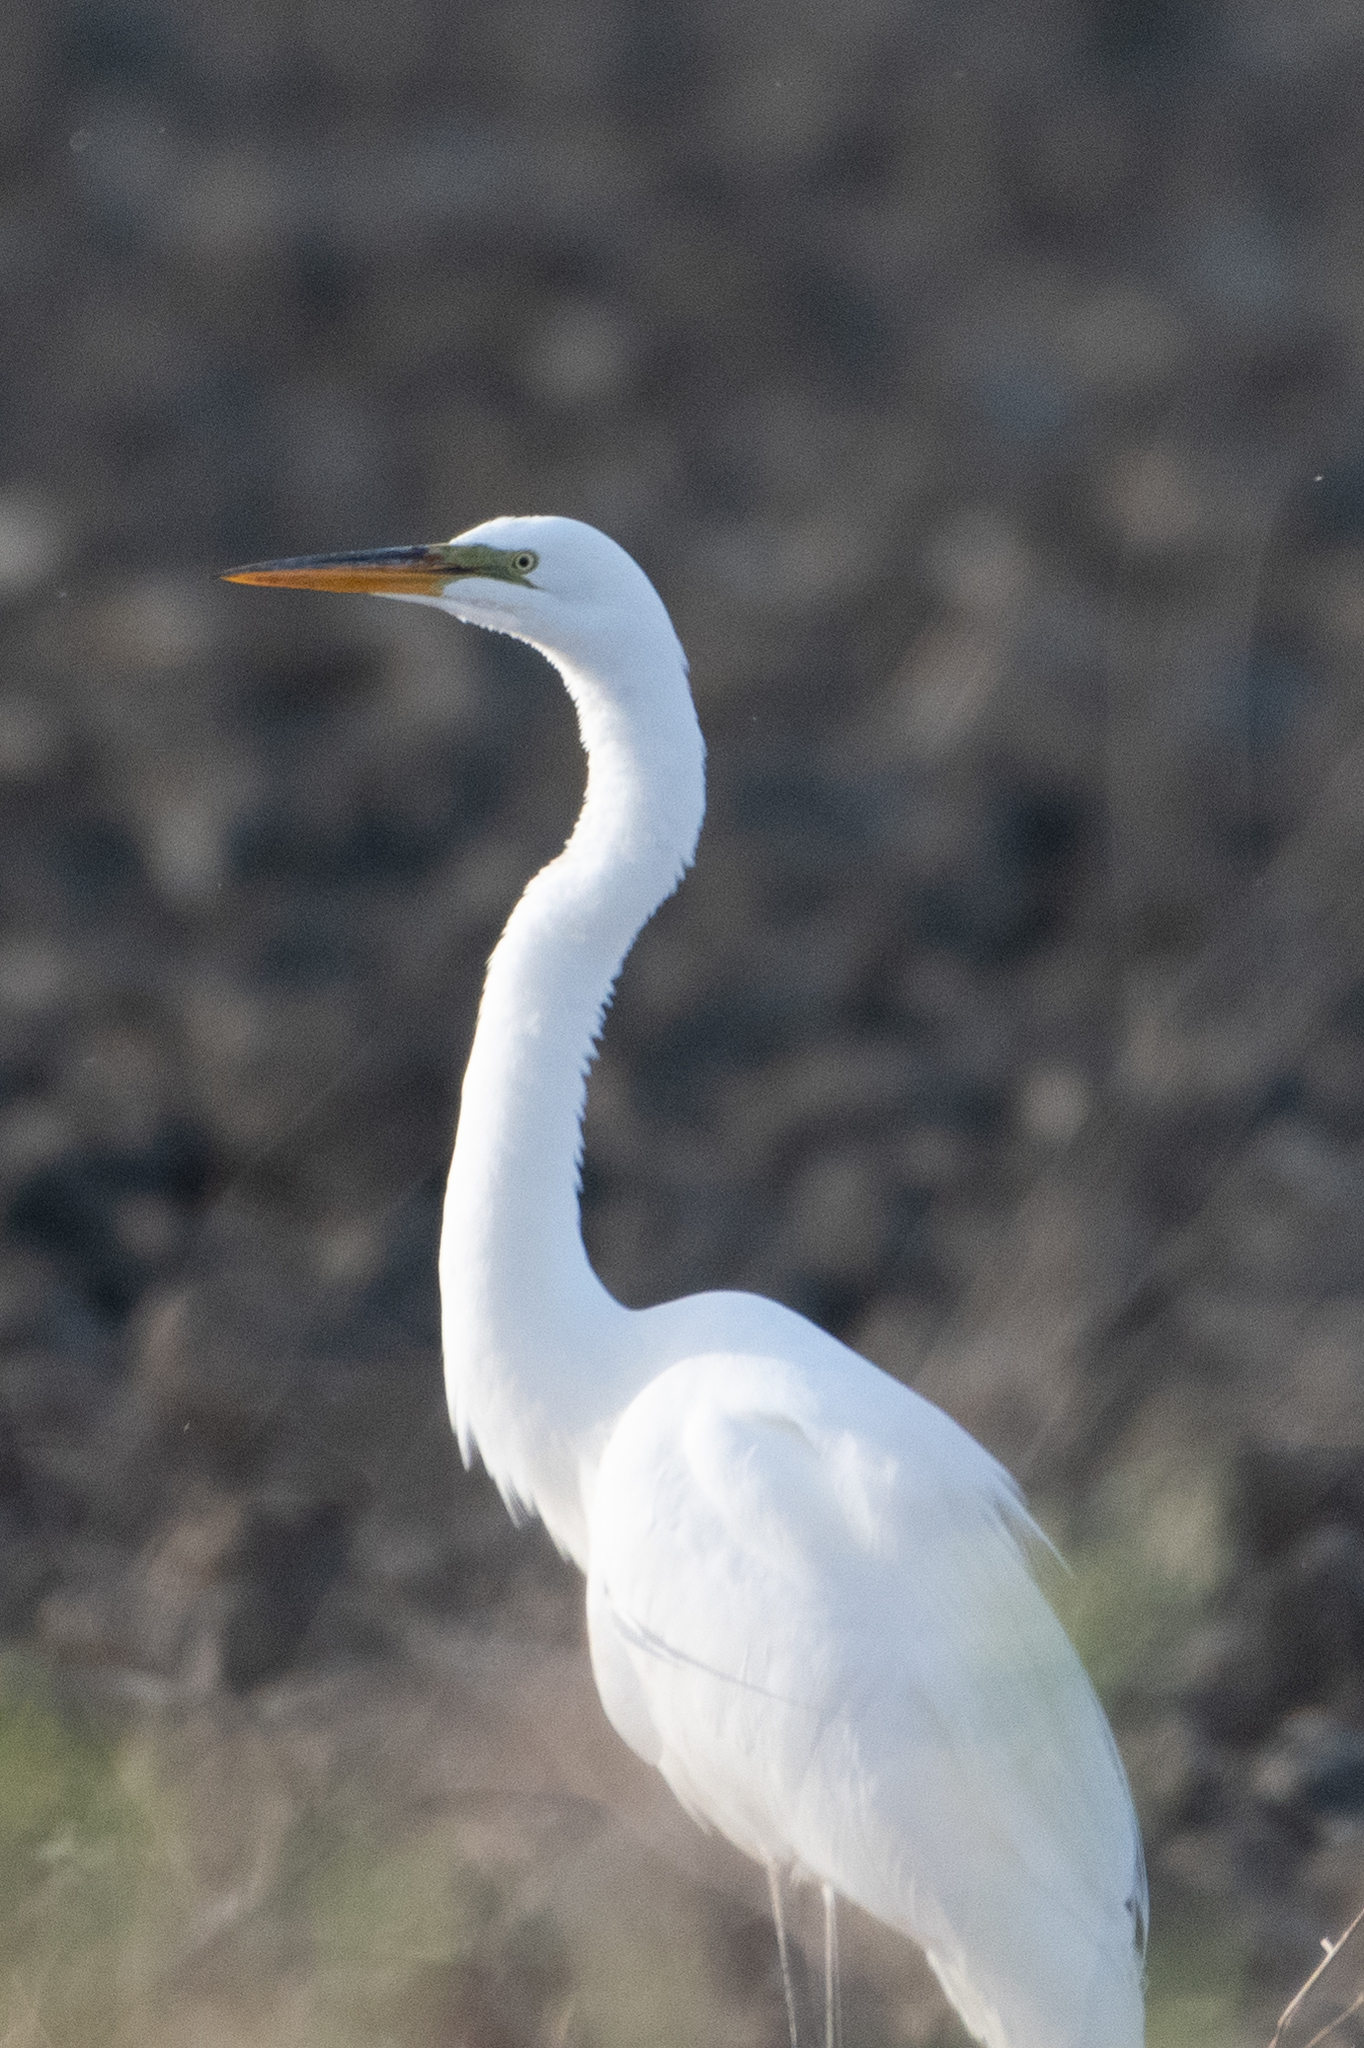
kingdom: Animalia
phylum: Chordata
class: Aves
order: Pelecaniformes
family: Ardeidae
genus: Ardea
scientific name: Ardea alba
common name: Great egret
